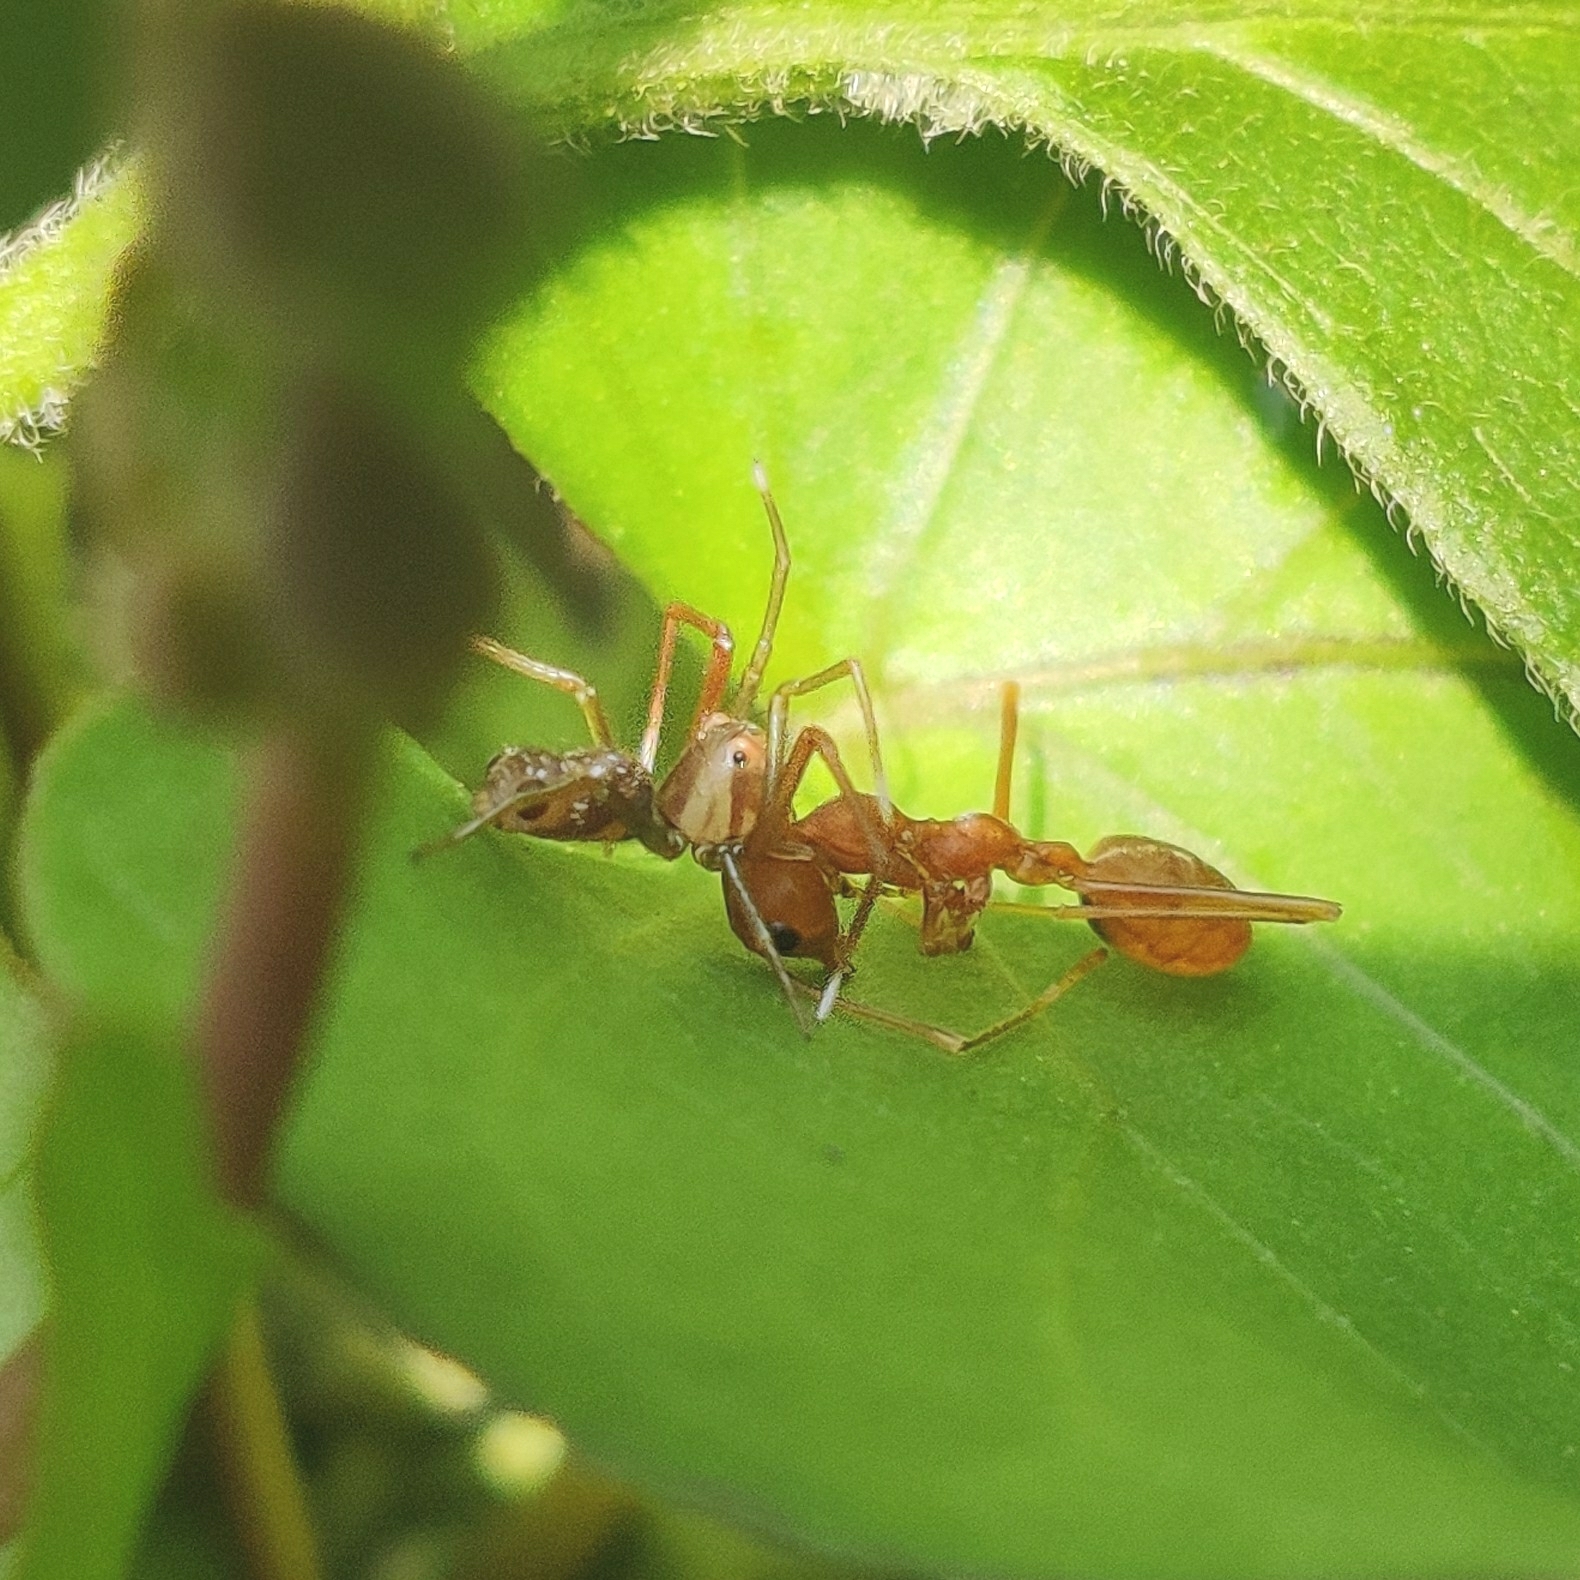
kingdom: Animalia
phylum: Arthropoda
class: Insecta
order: Hymenoptera
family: Formicidae
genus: Oecophylla
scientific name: Oecophylla smaragdina
